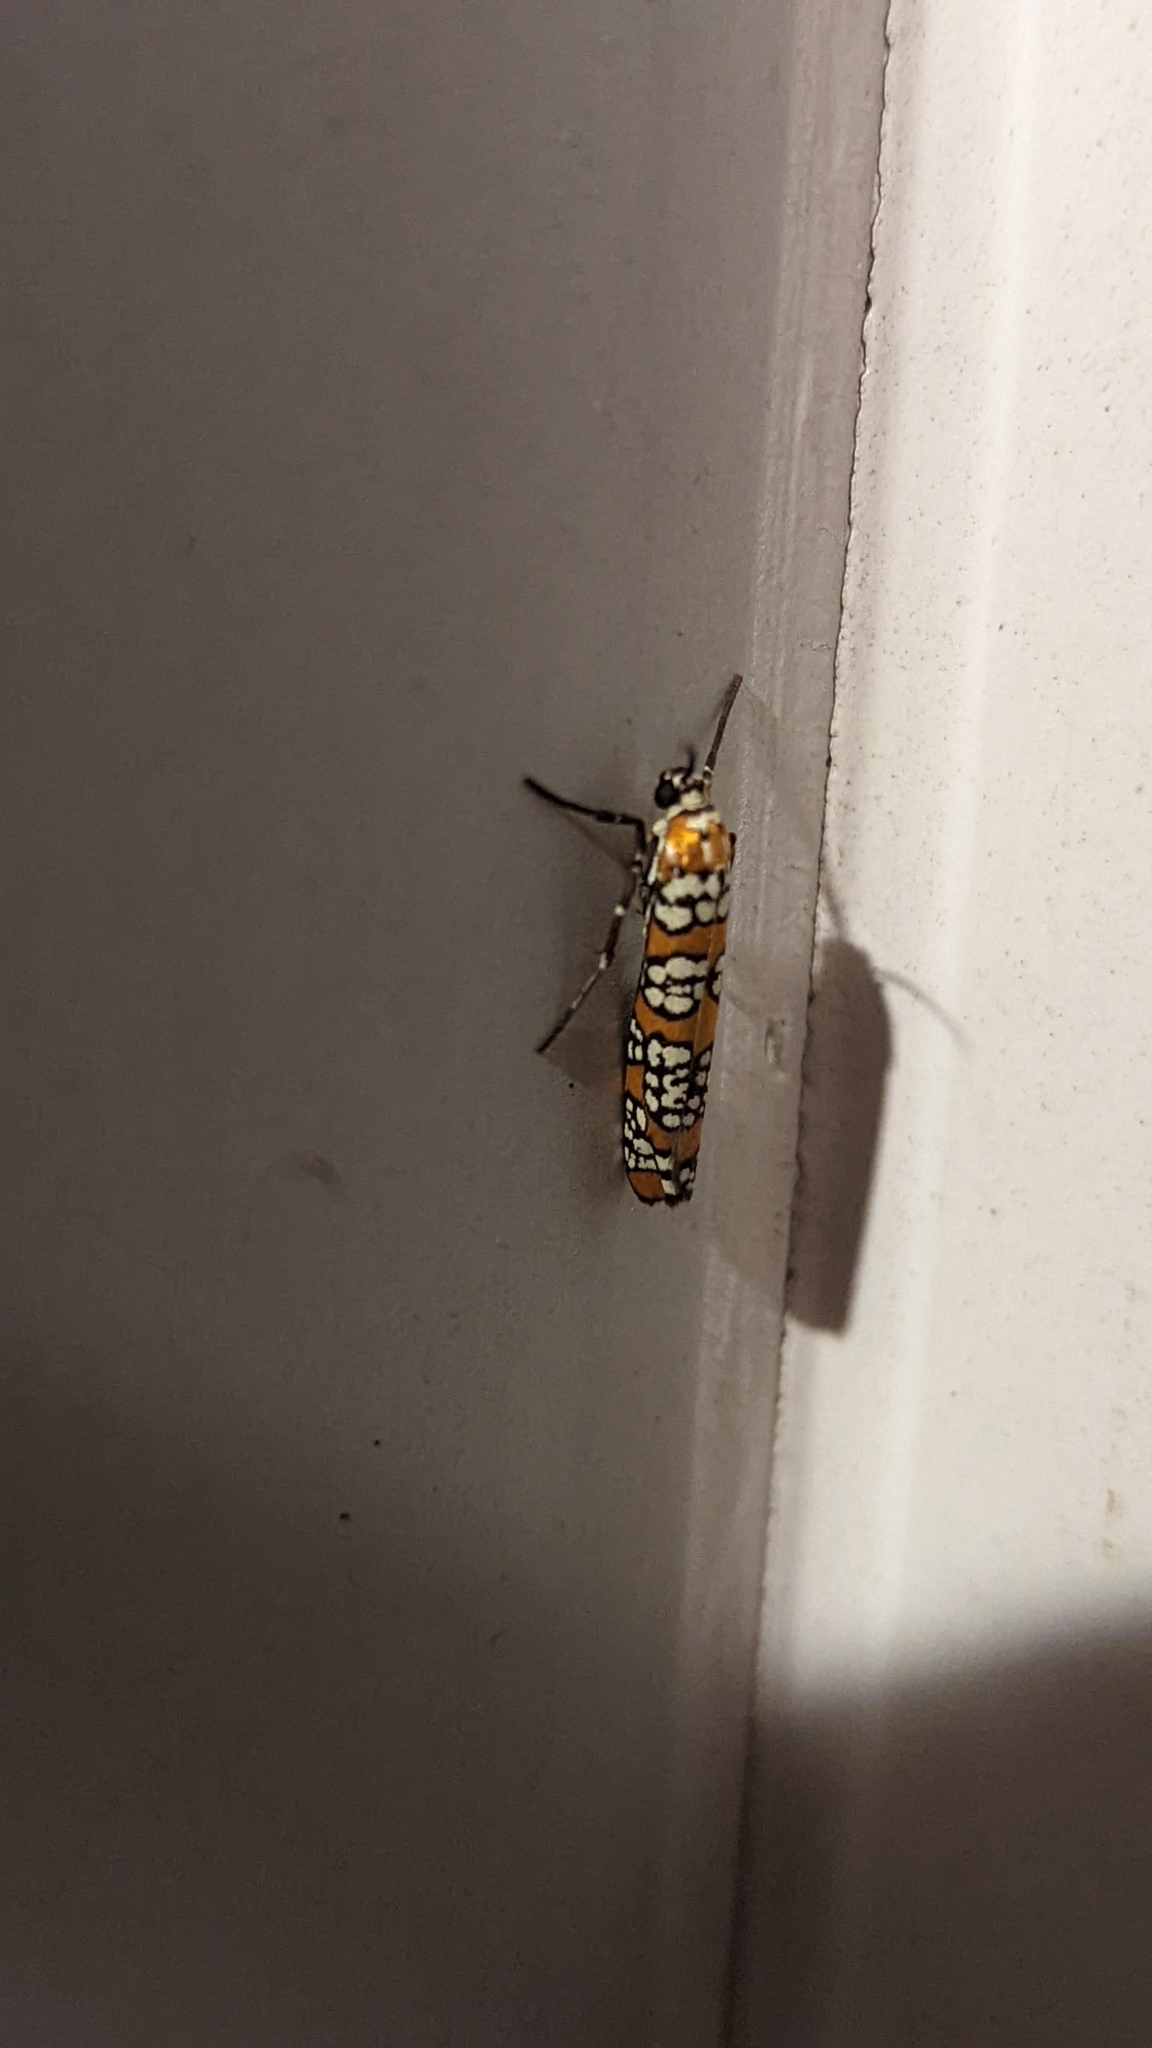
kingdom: Animalia
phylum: Arthropoda
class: Insecta
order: Lepidoptera
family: Attevidae
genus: Atteva
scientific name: Atteva punctella
